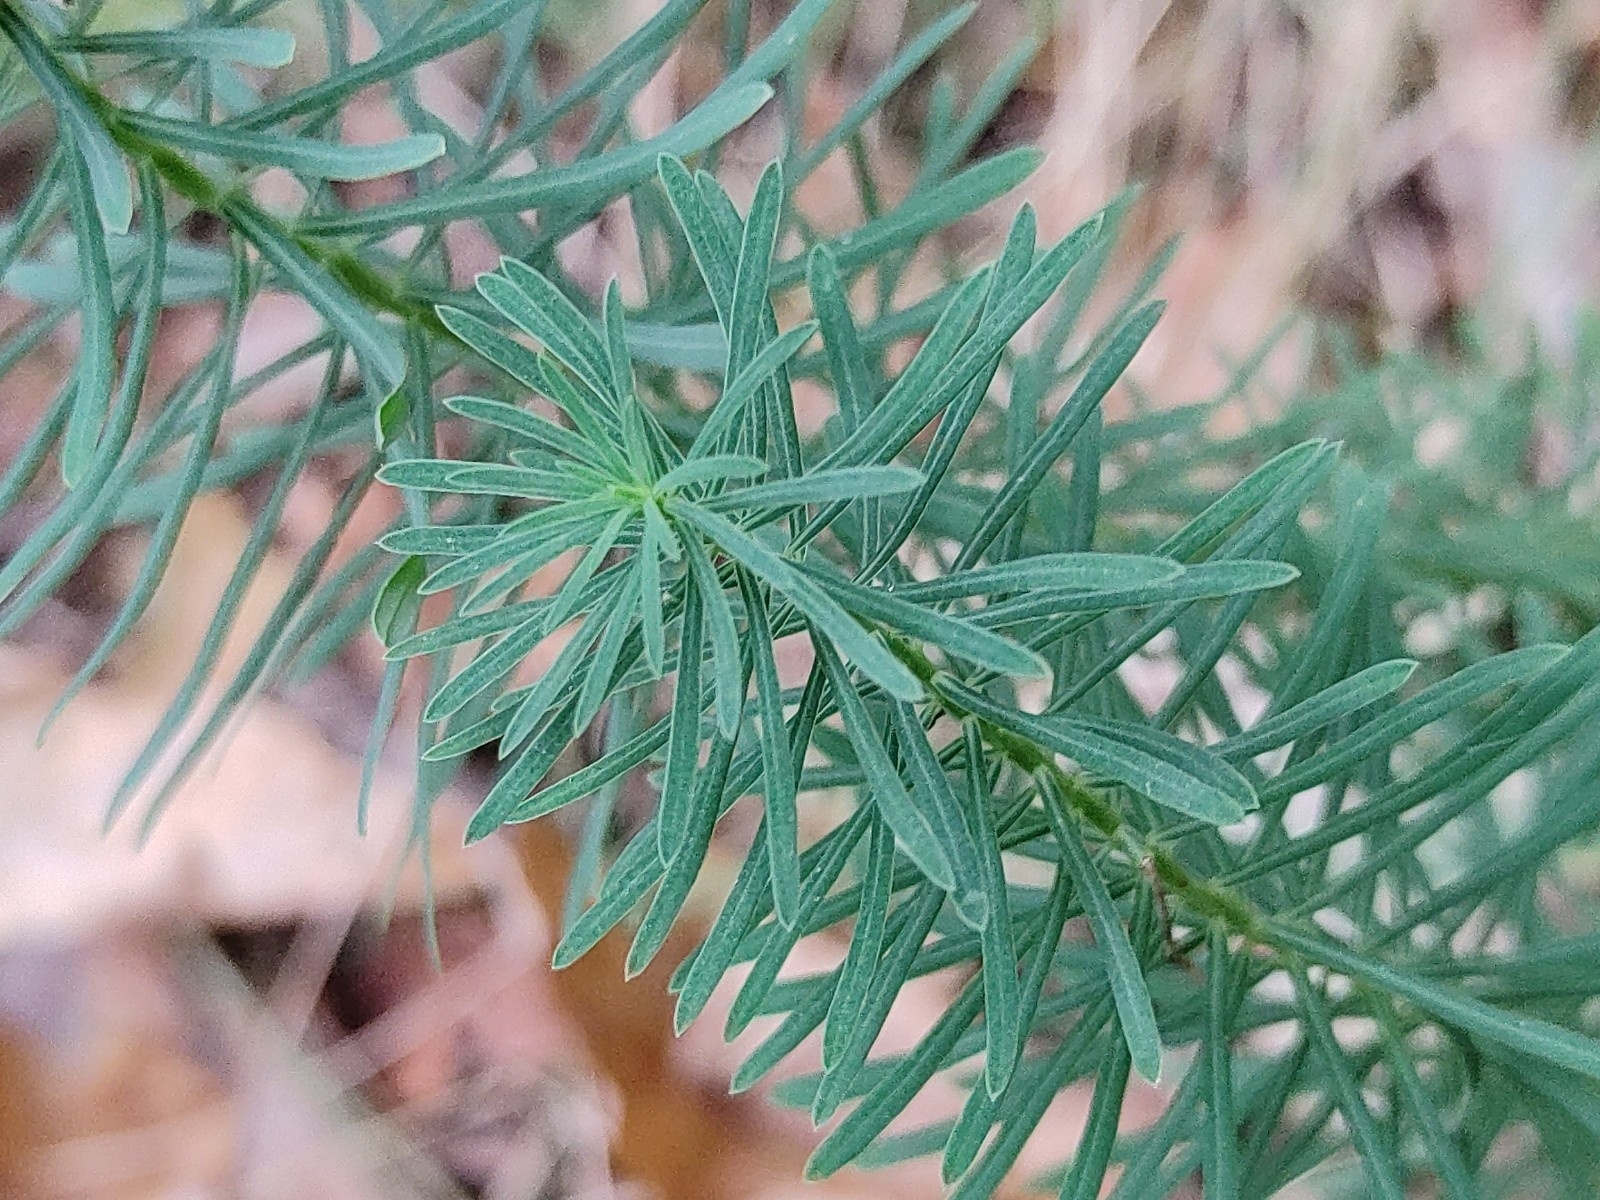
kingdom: Plantae
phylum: Tracheophyta
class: Magnoliopsida
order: Malpighiales
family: Euphorbiaceae
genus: Euphorbia
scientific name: Euphorbia cyparissias
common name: Cypress spurge
